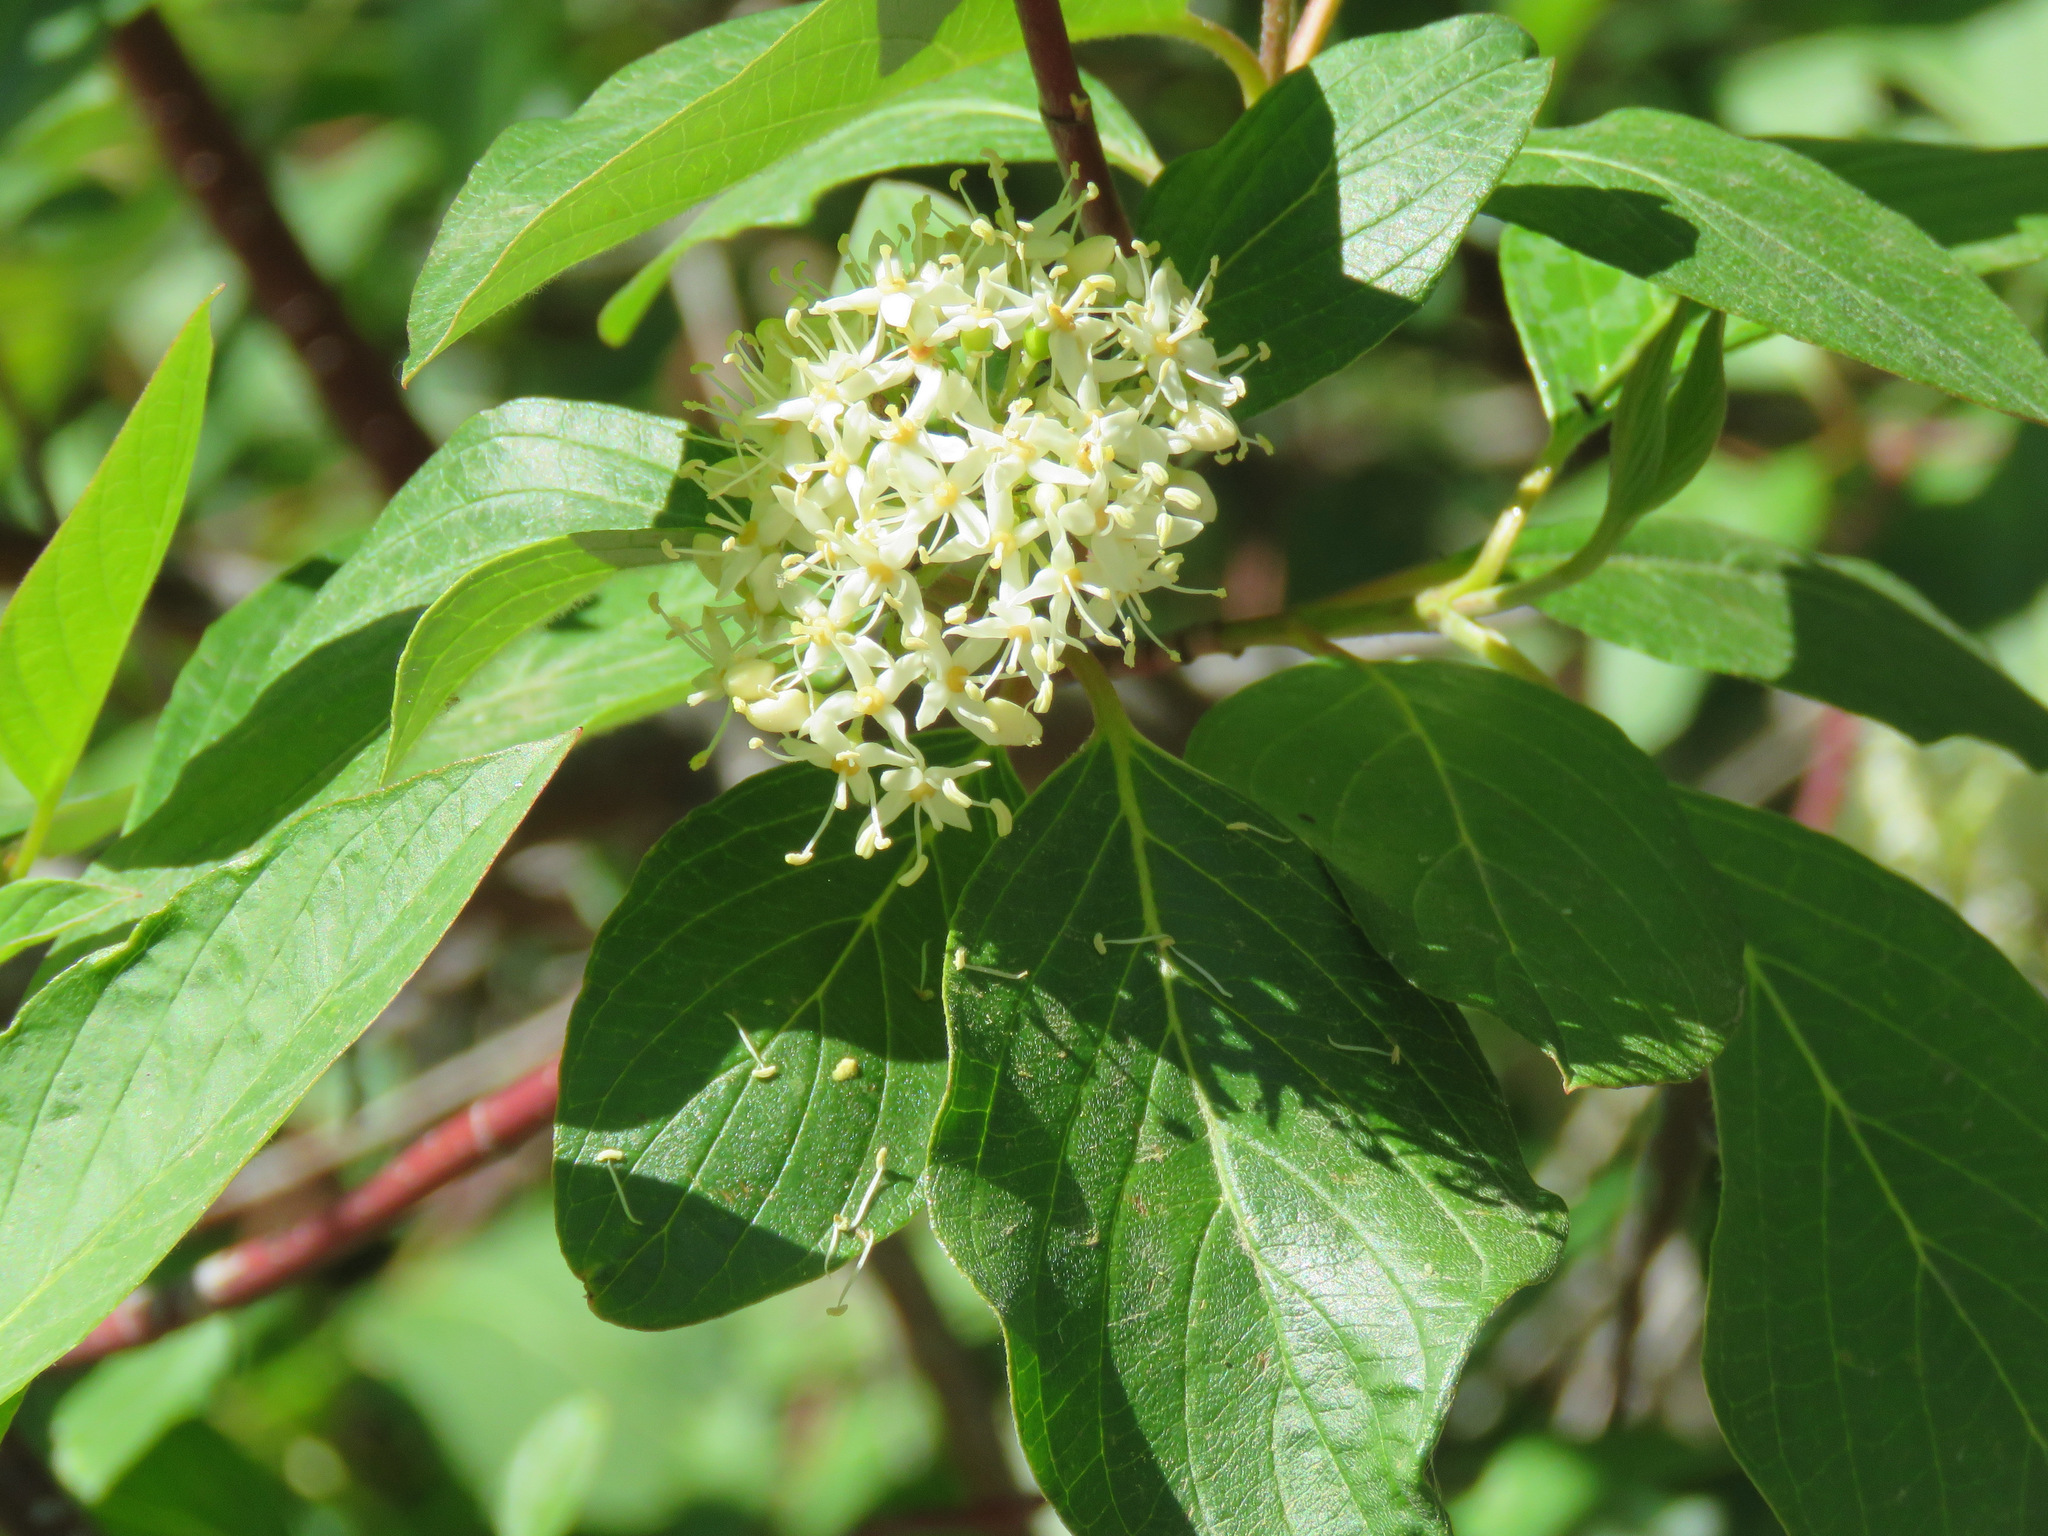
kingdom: Plantae
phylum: Tracheophyta
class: Magnoliopsida
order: Cornales
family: Cornaceae
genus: Cornus
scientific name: Cornus sericea
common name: Red-osier dogwood
